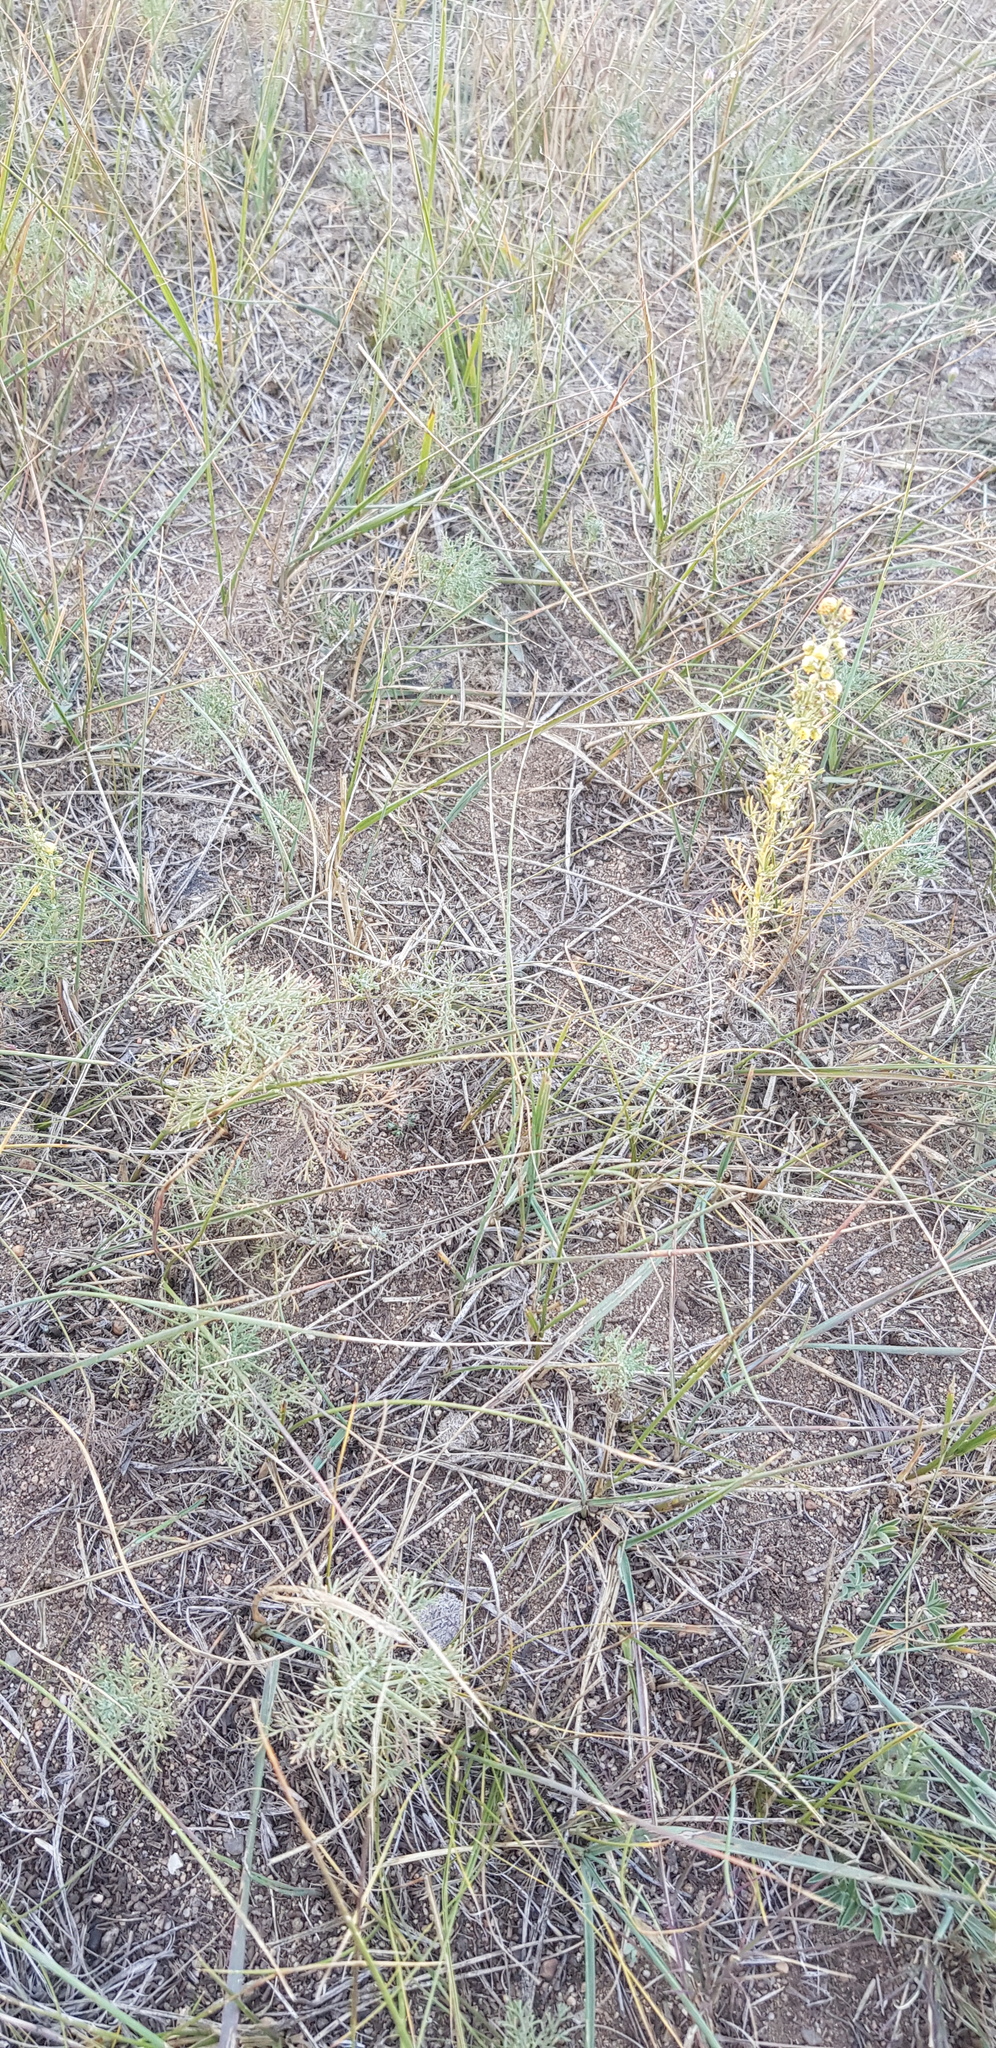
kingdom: Plantae
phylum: Tracheophyta
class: Magnoliopsida
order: Asterales
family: Asteraceae
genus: Artemisia
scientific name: Artemisia adamsii
